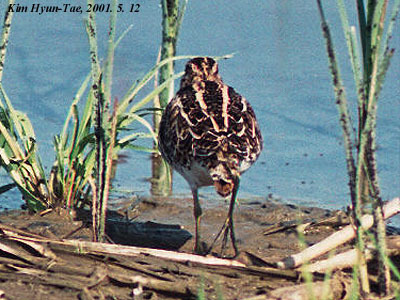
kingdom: Animalia
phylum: Chordata
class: Aves
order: Charadriiformes
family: Scolopacidae
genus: Gallinago
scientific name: Gallinago gallinago
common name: Common snipe
